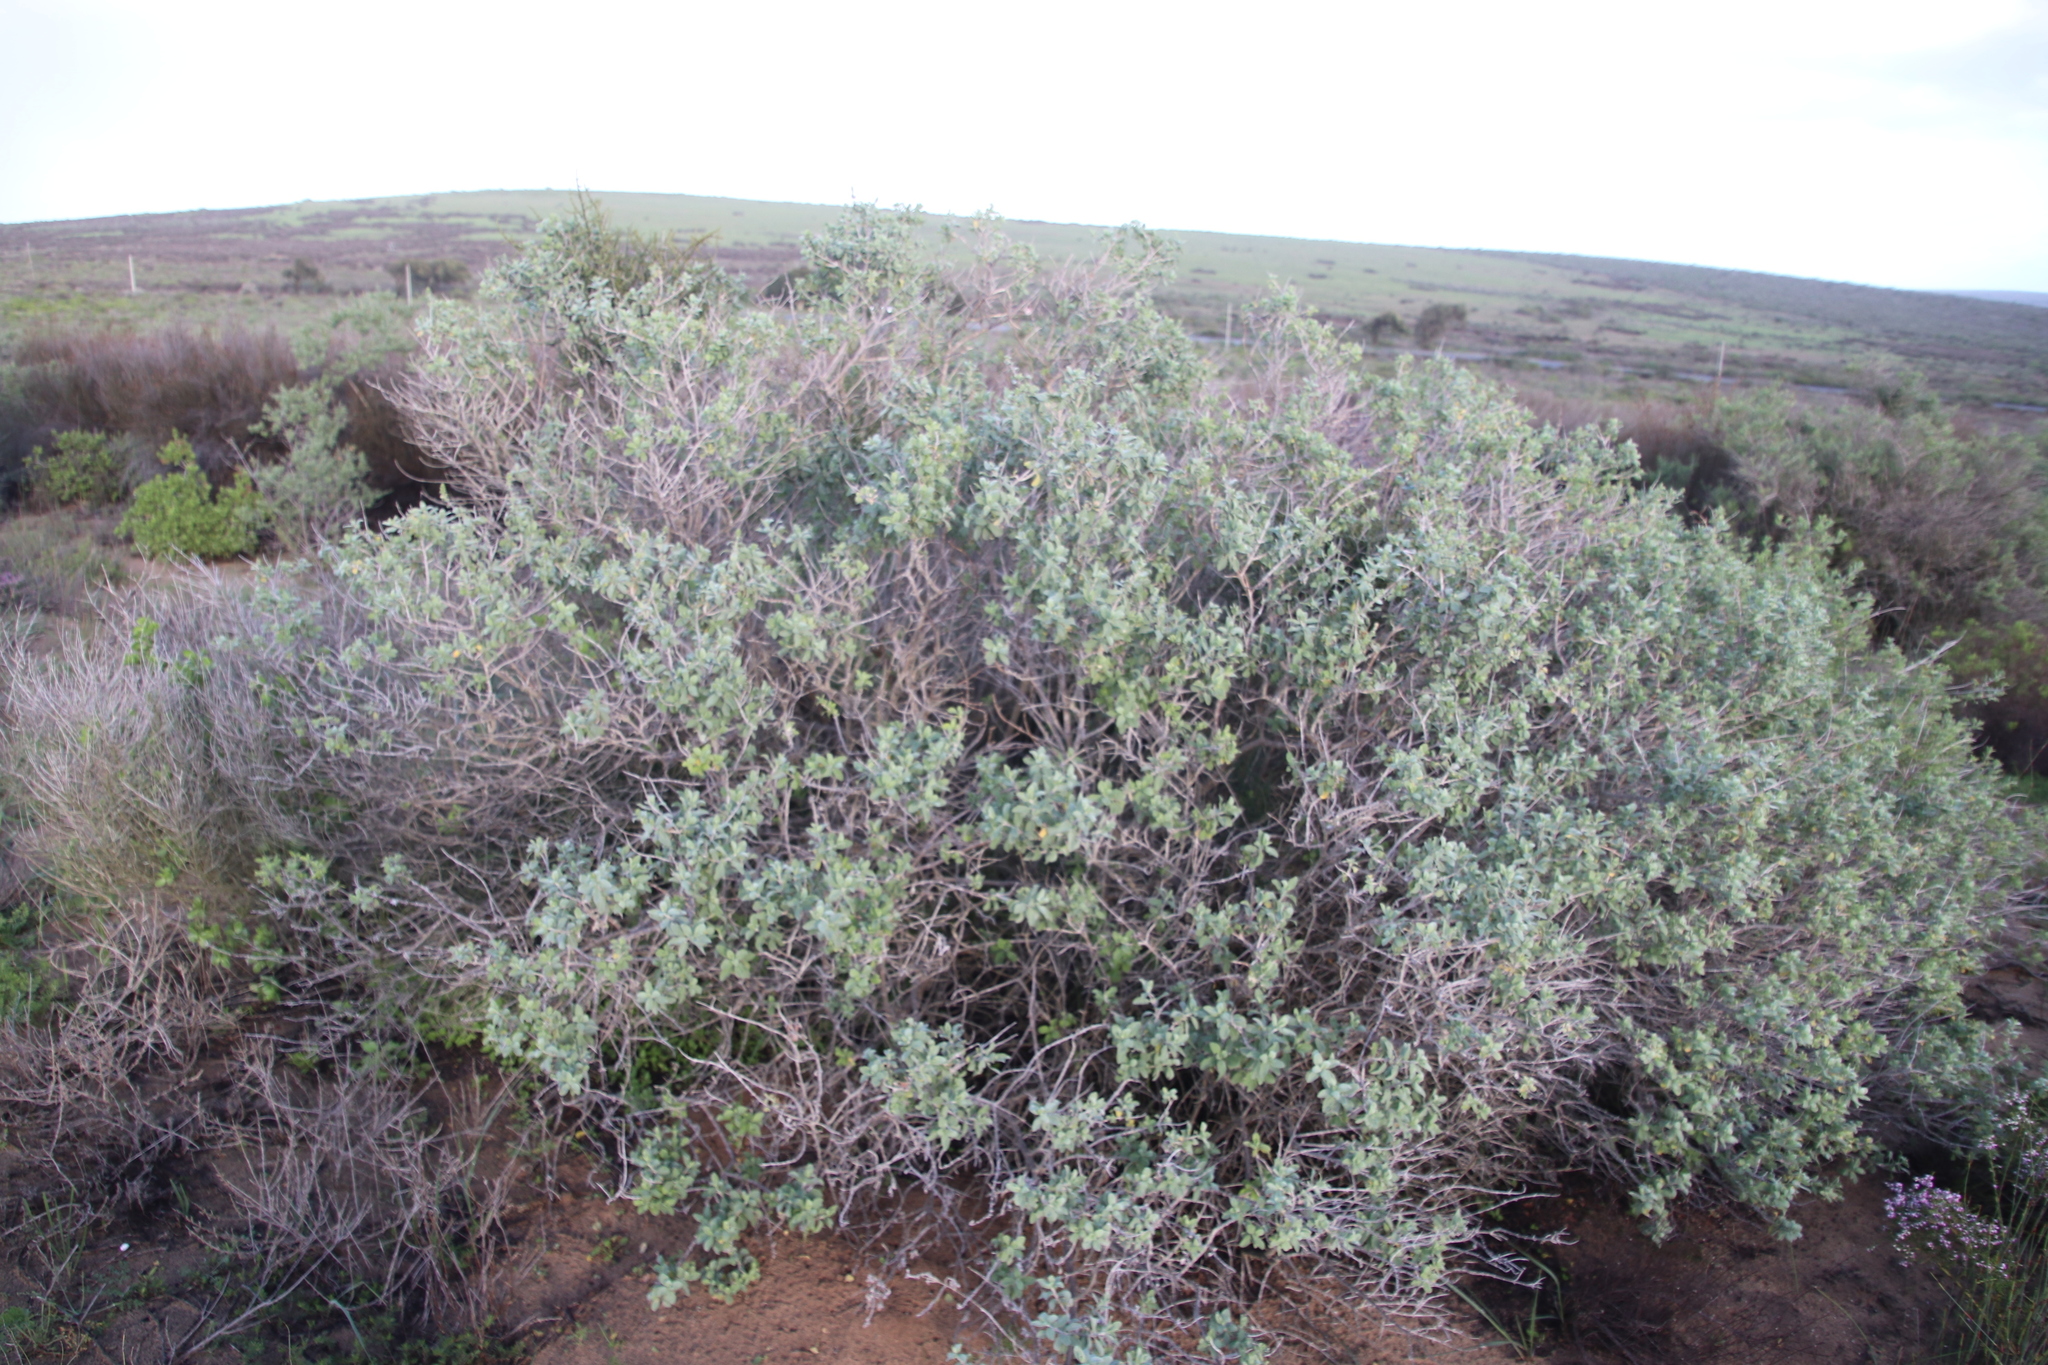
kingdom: Plantae
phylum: Tracheophyta
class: Magnoliopsida
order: Lamiales
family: Lamiaceae
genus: Salvia
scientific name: Salvia aurea
